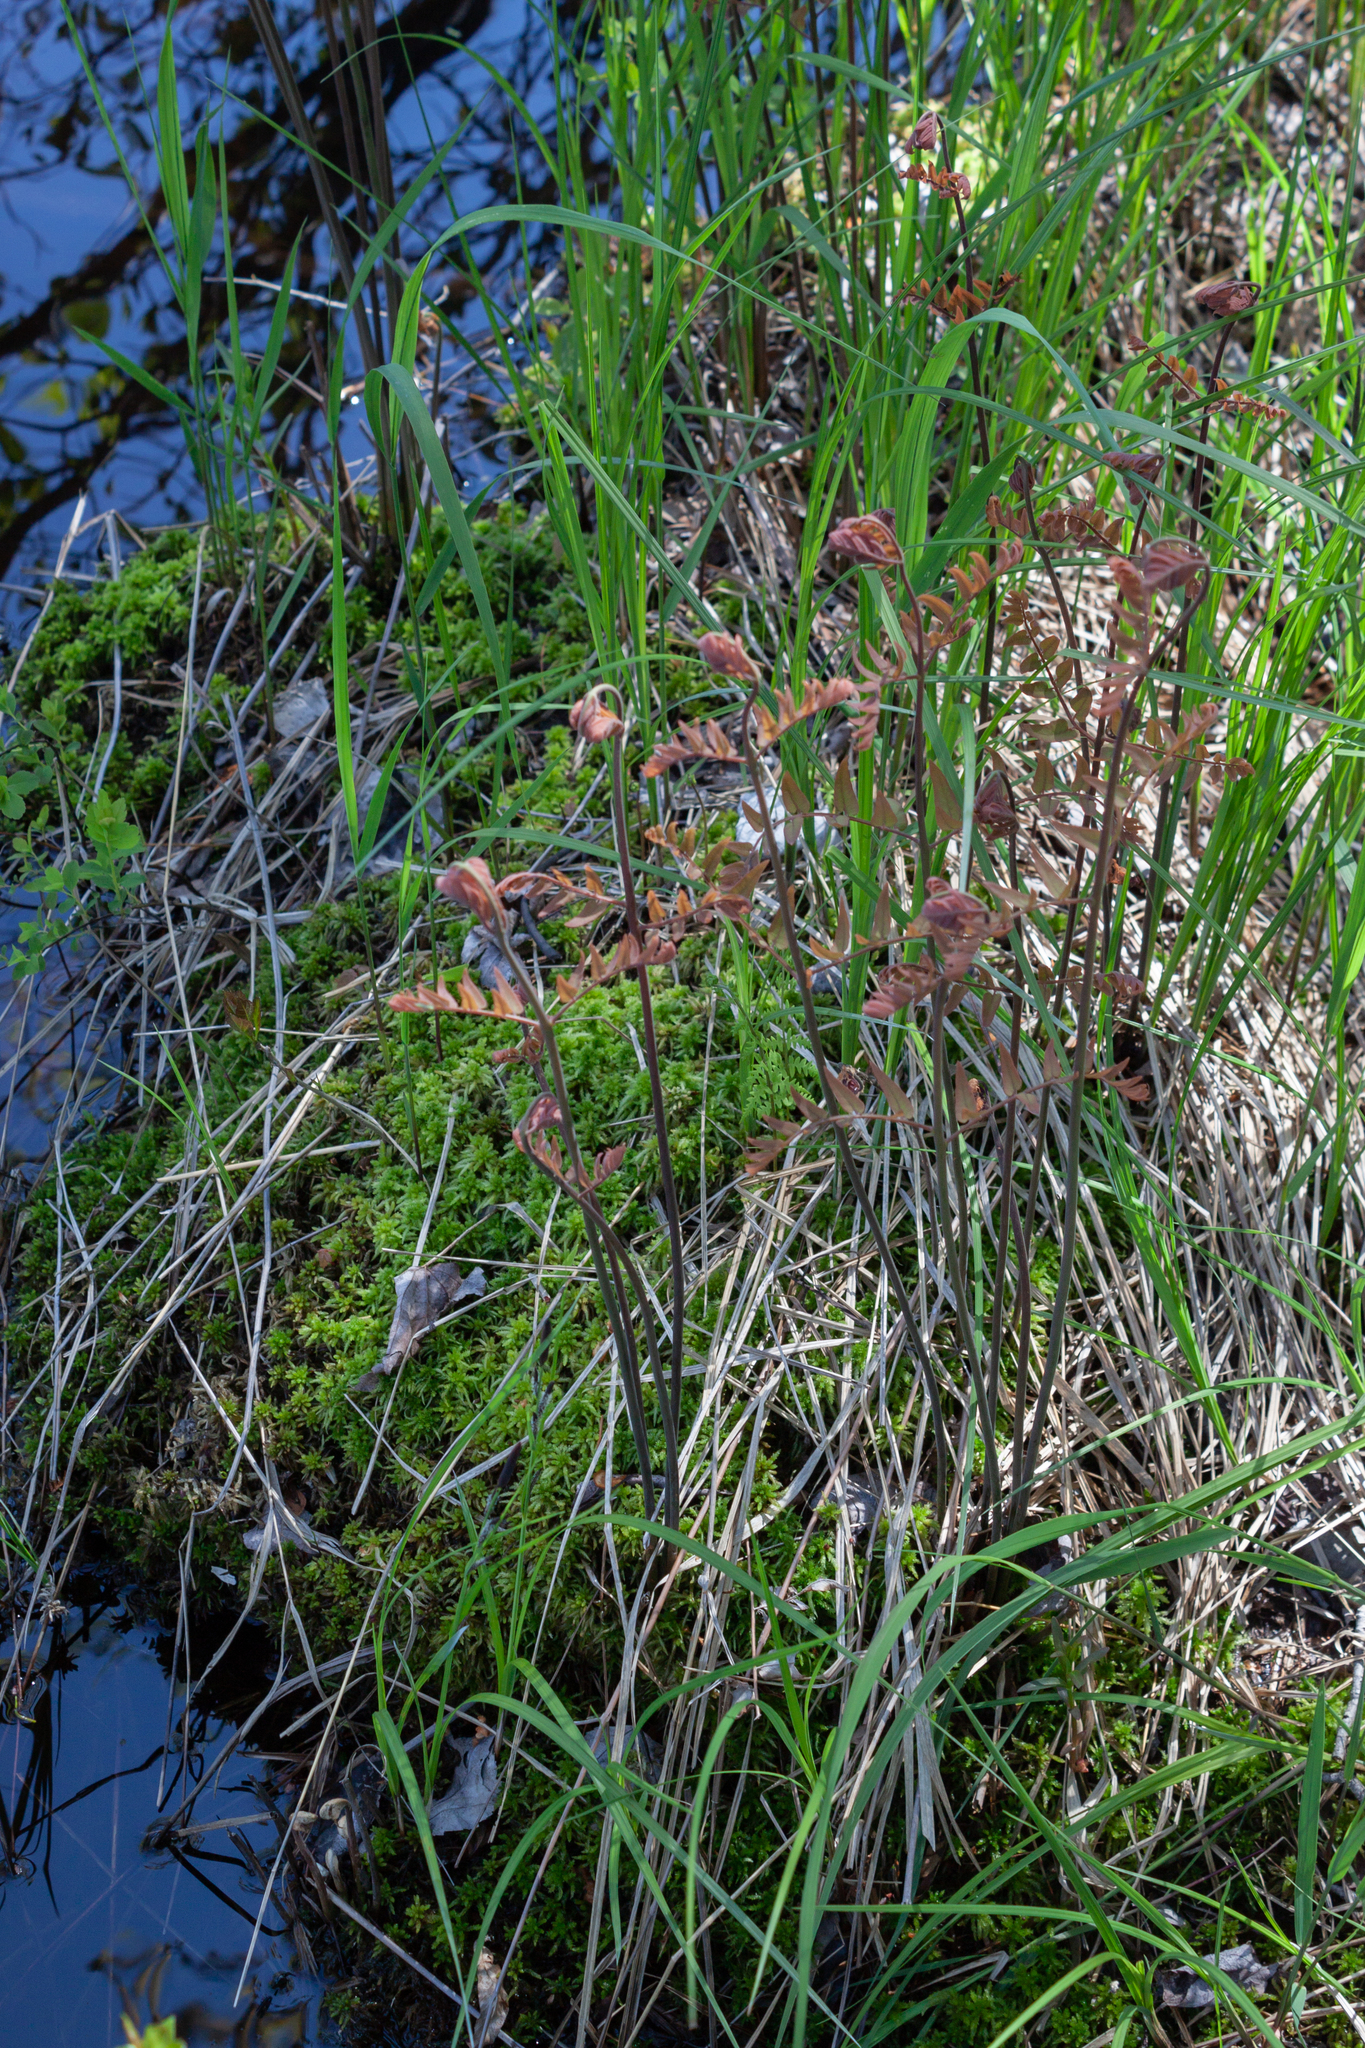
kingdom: Plantae
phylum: Tracheophyta
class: Polypodiopsida
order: Osmundales
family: Osmundaceae
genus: Osmunda
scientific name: Osmunda spectabilis
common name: American royal fern
